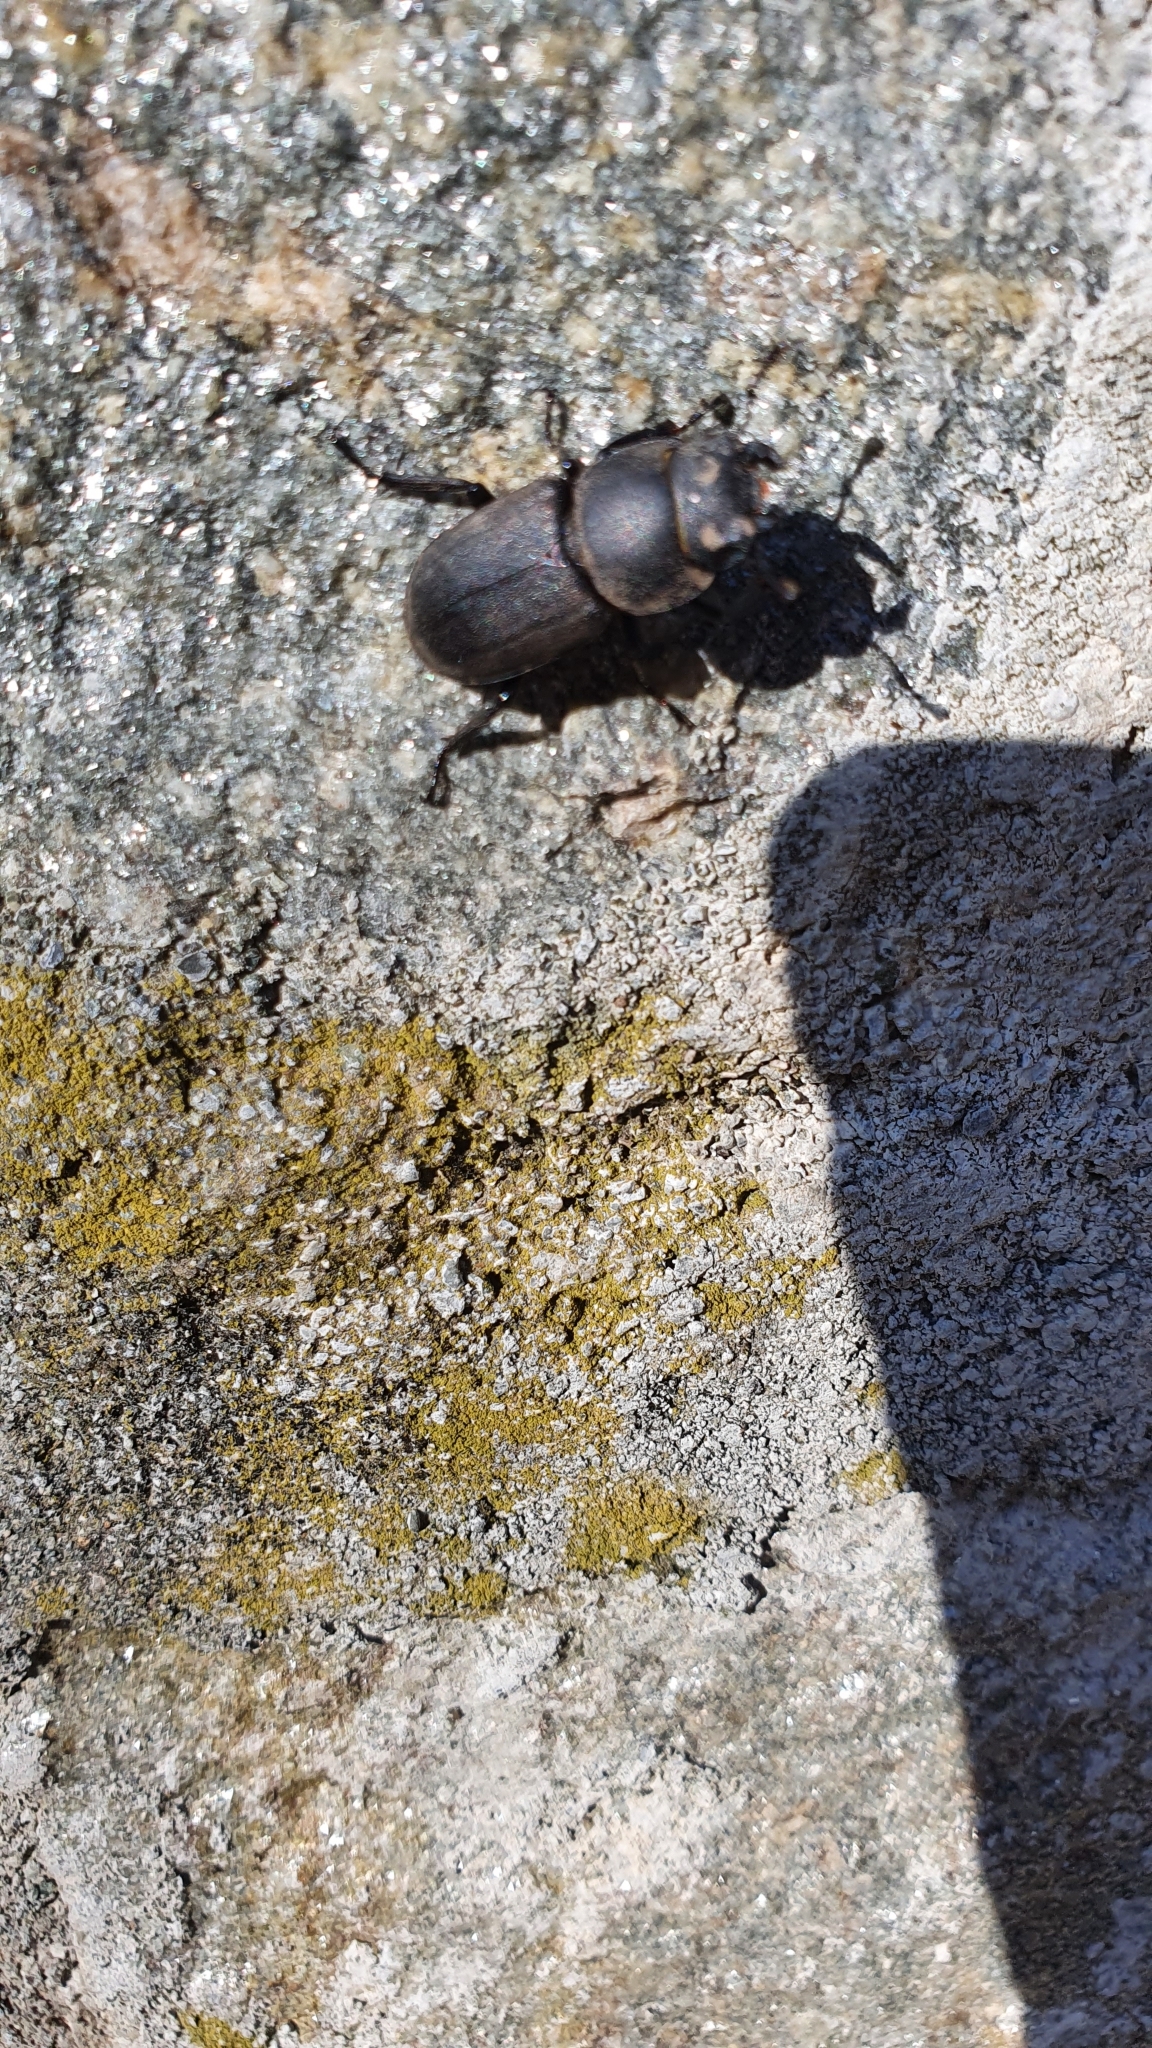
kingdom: Animalia
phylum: Arthropoda
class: Insecta
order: Coleoptera
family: Lucanidae
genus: Dorcus
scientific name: Dorcus parallelipipedus
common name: Lesser stag beetle
